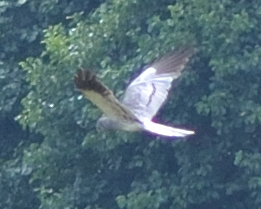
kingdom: Animalia
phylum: Chordata
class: Aves
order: Accipitriformes
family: Accipitridae
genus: Circus
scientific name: Circus pygargus
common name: Montagu's harrier
